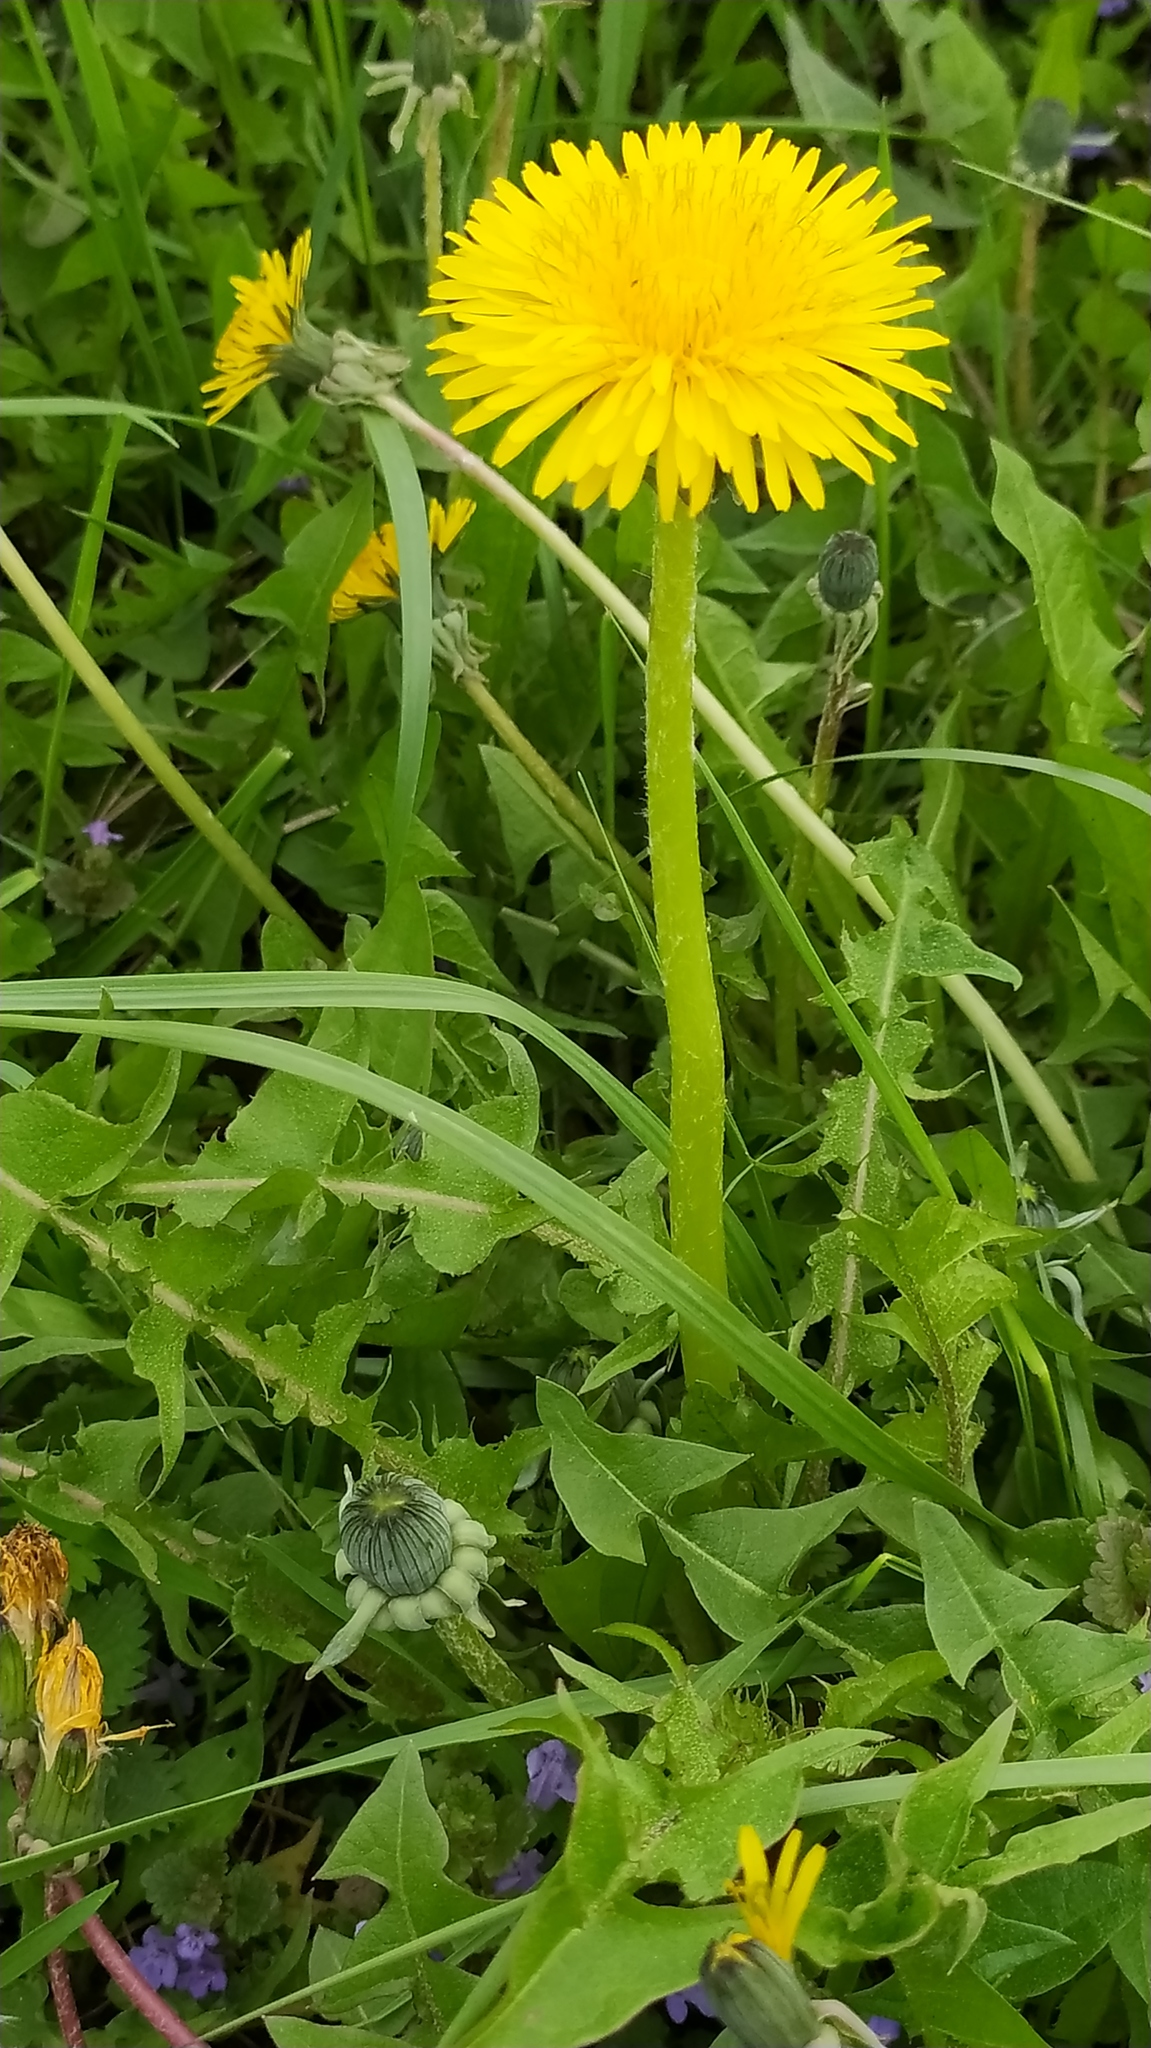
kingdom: Plantae
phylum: Tracheophyta
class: Magnoliopsida
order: Asterales
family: Asteraceae
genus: Taraxacum
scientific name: Taraxacum officinale
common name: Common dandelion
